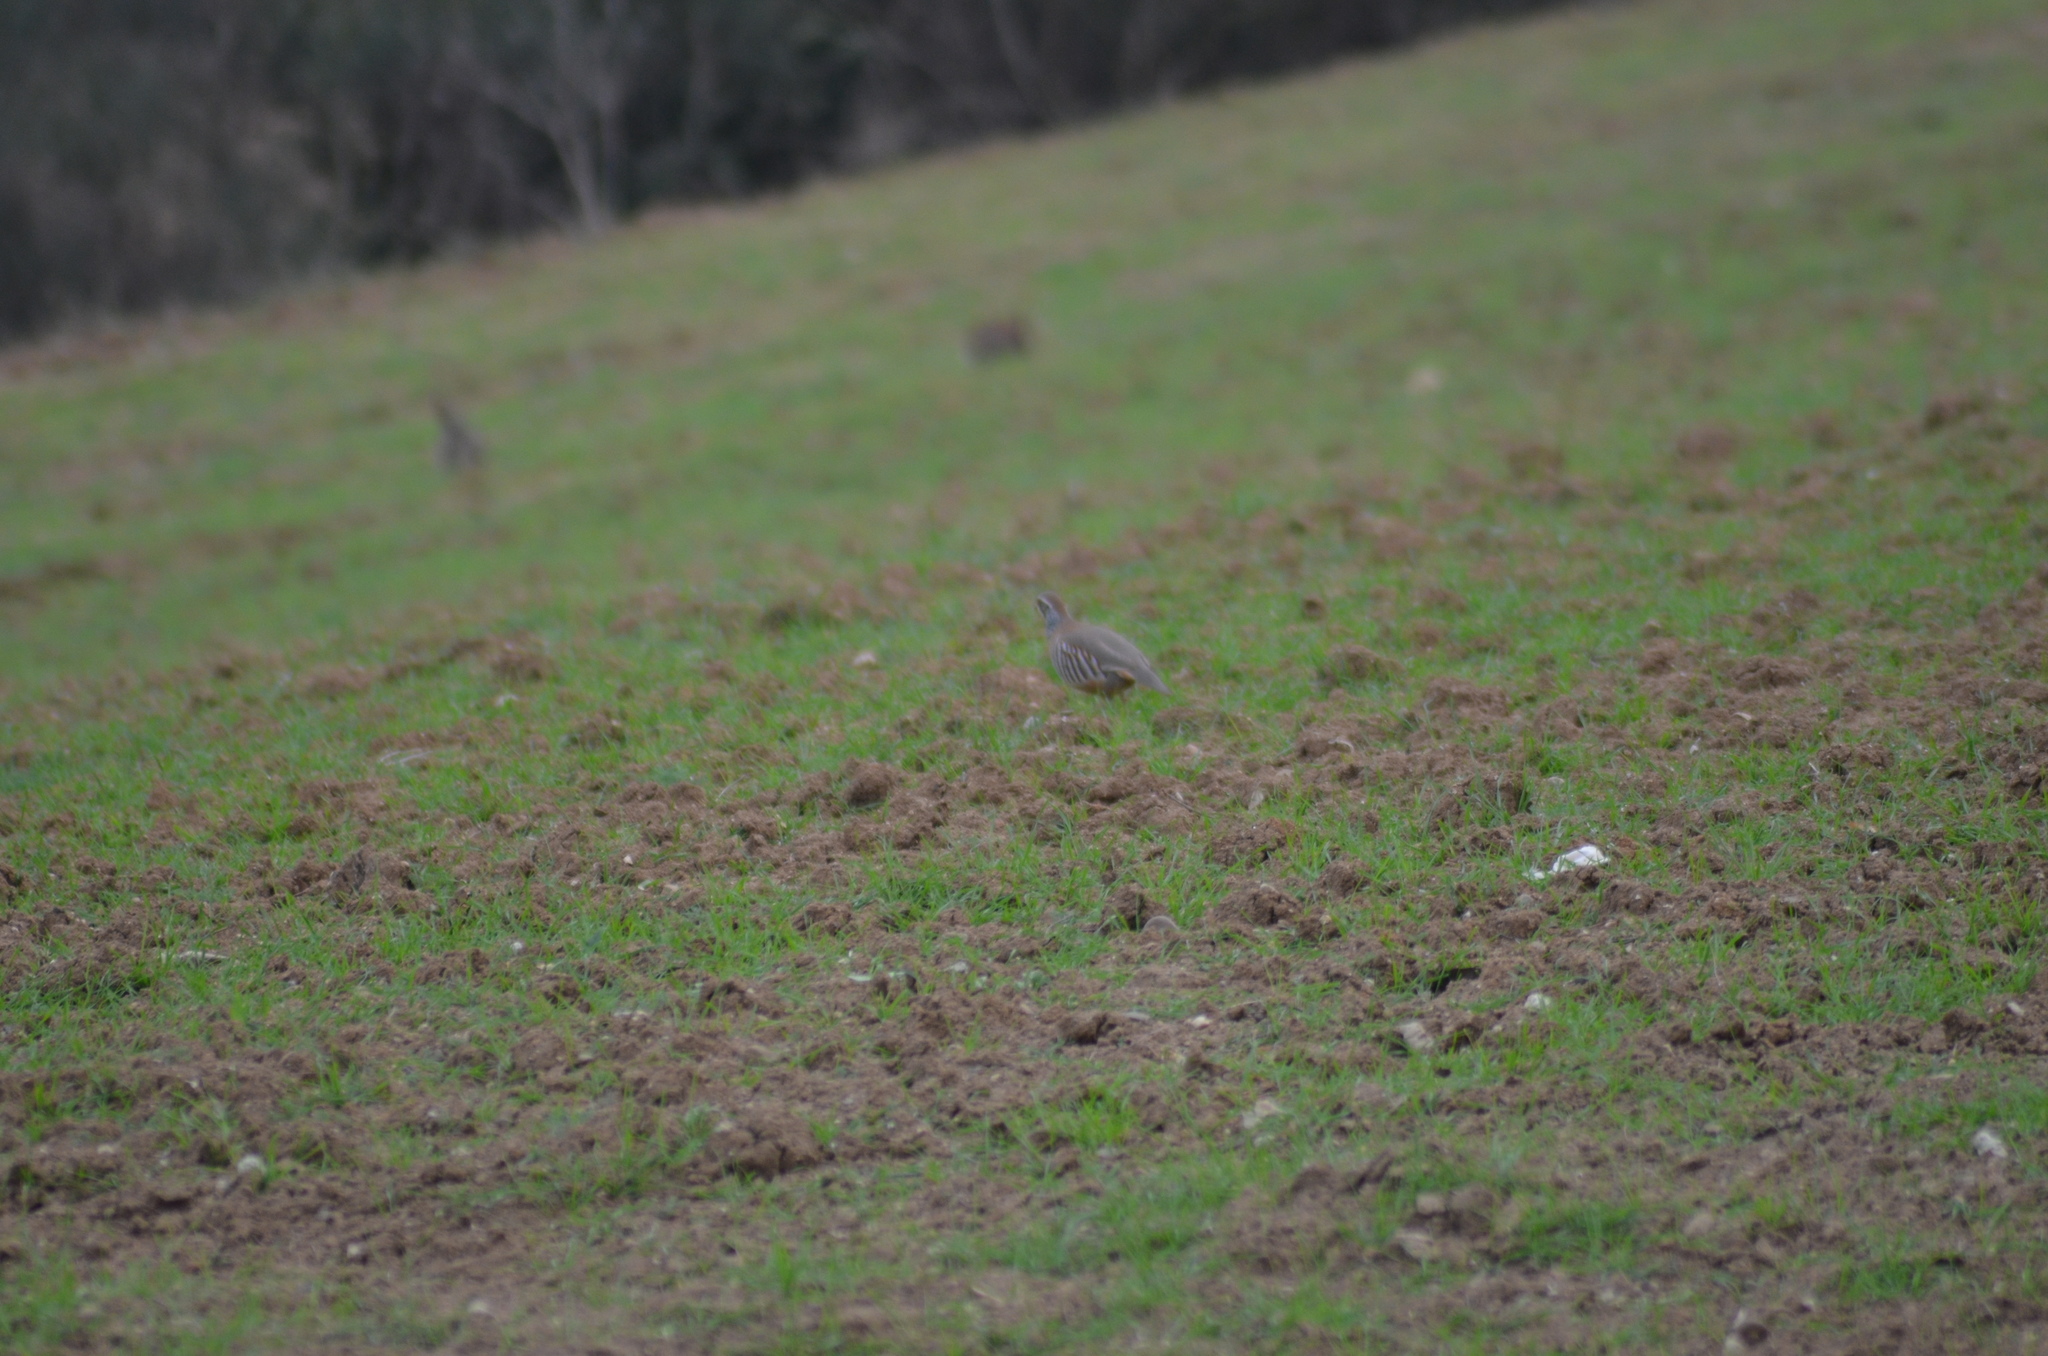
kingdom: Animalia
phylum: Chordata
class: Aves
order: Galliformes
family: Phasianidae
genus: Alectoris
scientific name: Alectoris rufa
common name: Red-legged partridge
